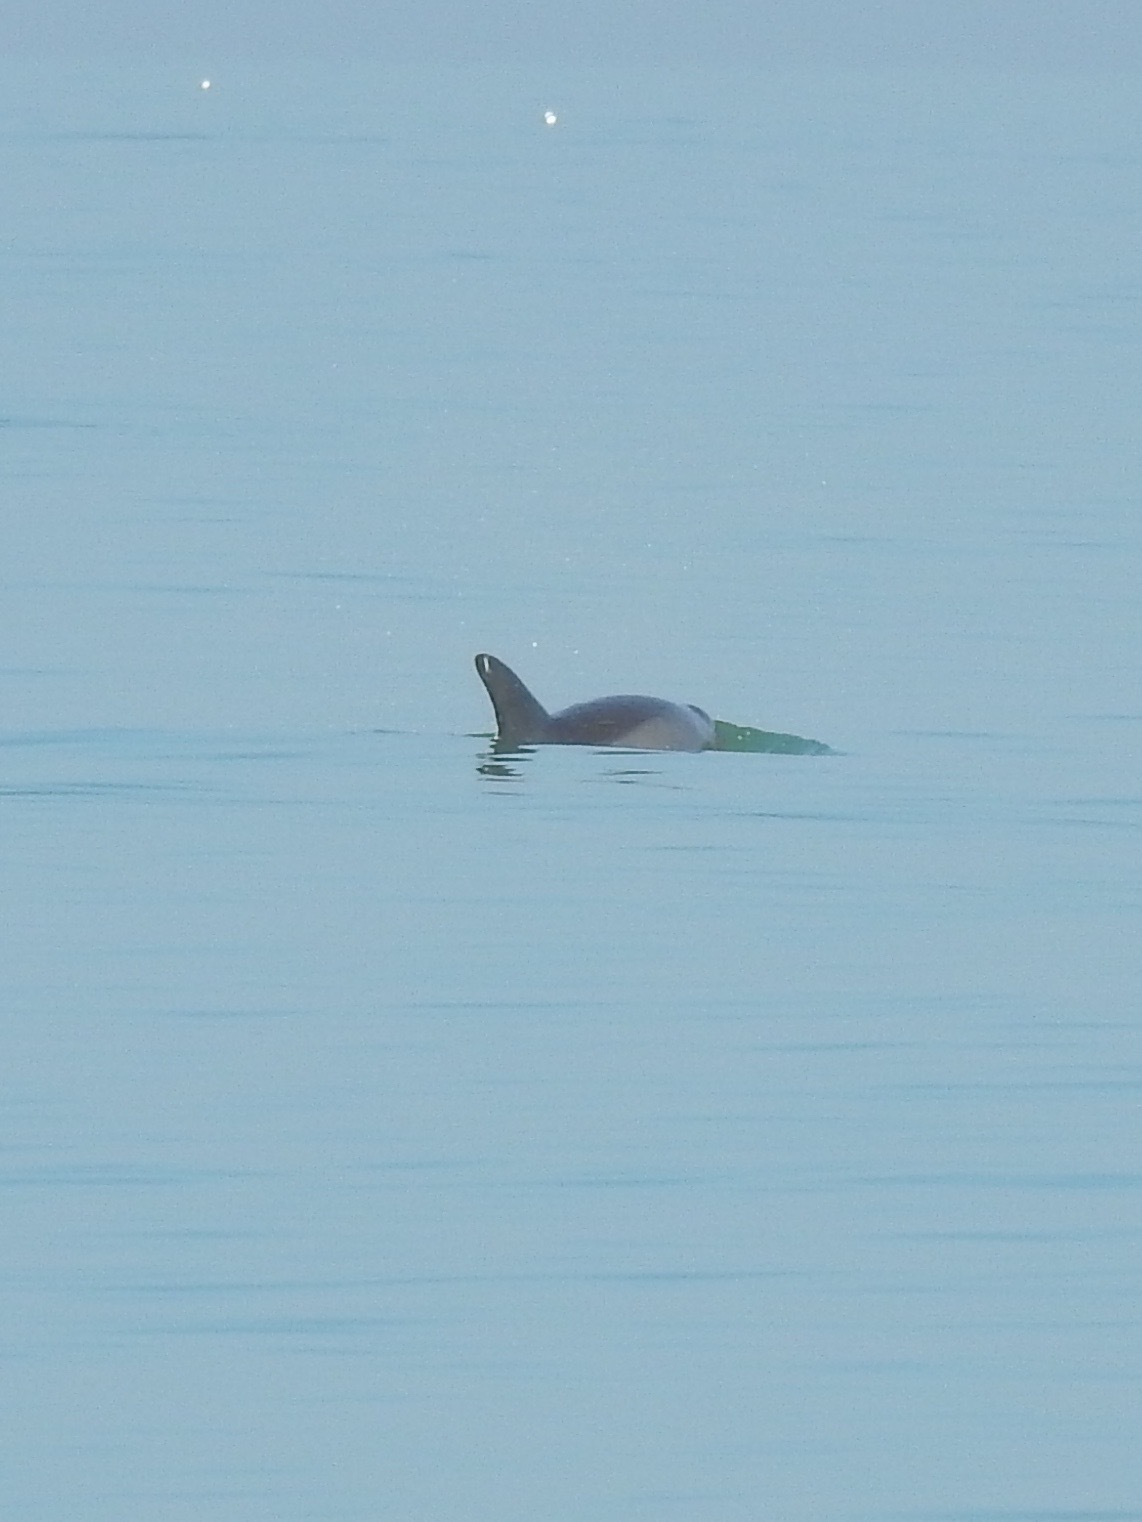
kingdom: Animalia
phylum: Chordata
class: Mammalia
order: Cetacea
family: Delphinidae
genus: Tursiops
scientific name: Tursiops truncatus
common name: Bottlenose dolphin
